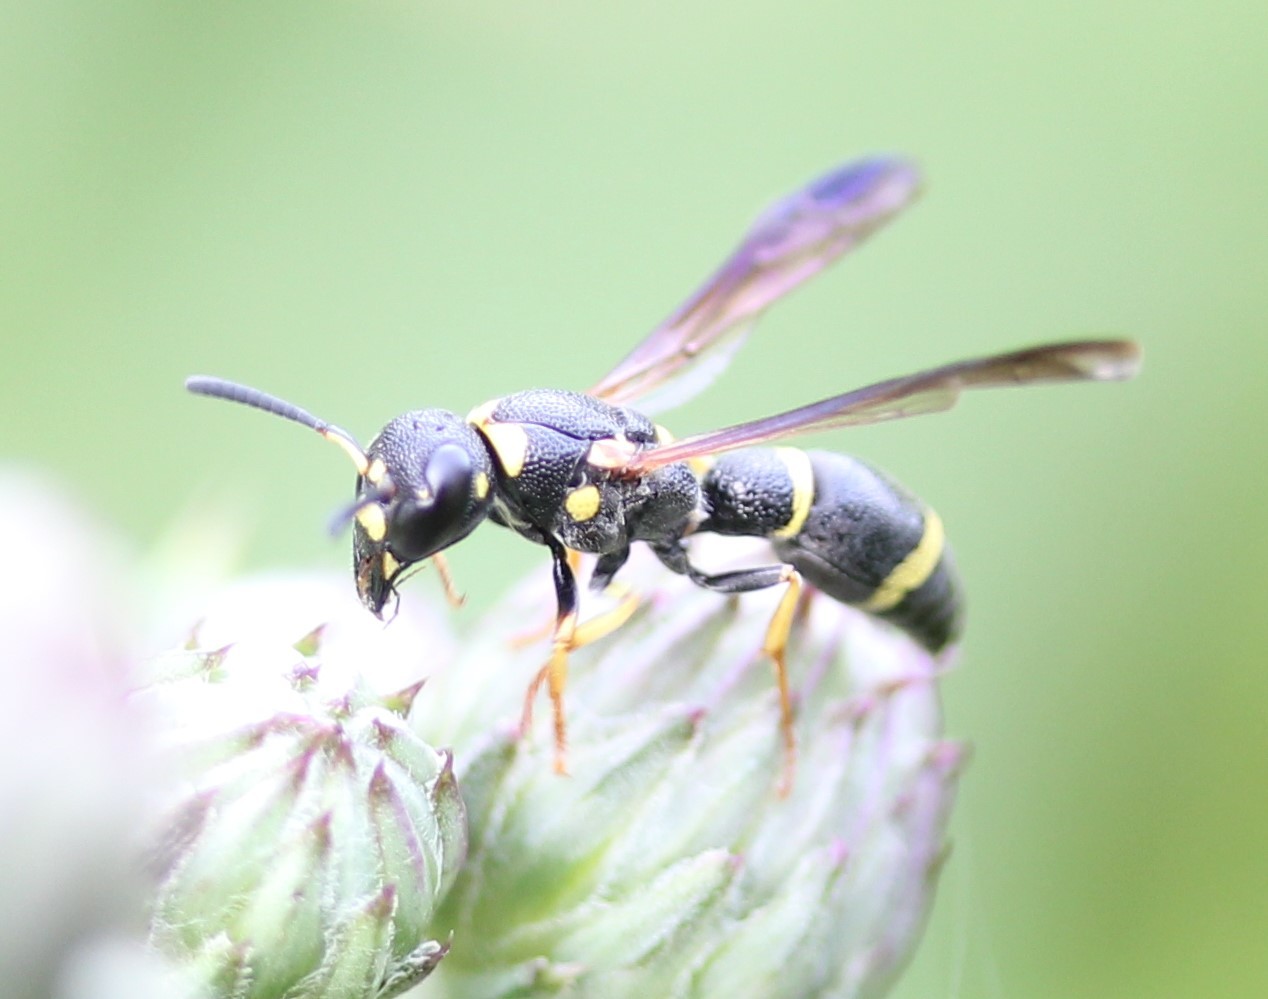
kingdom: Animalia
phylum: Arthropoda
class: Insecta
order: Hymenoptera
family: Eumenidae
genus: Parancistrocerus
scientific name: Parancistrocerus perennis
